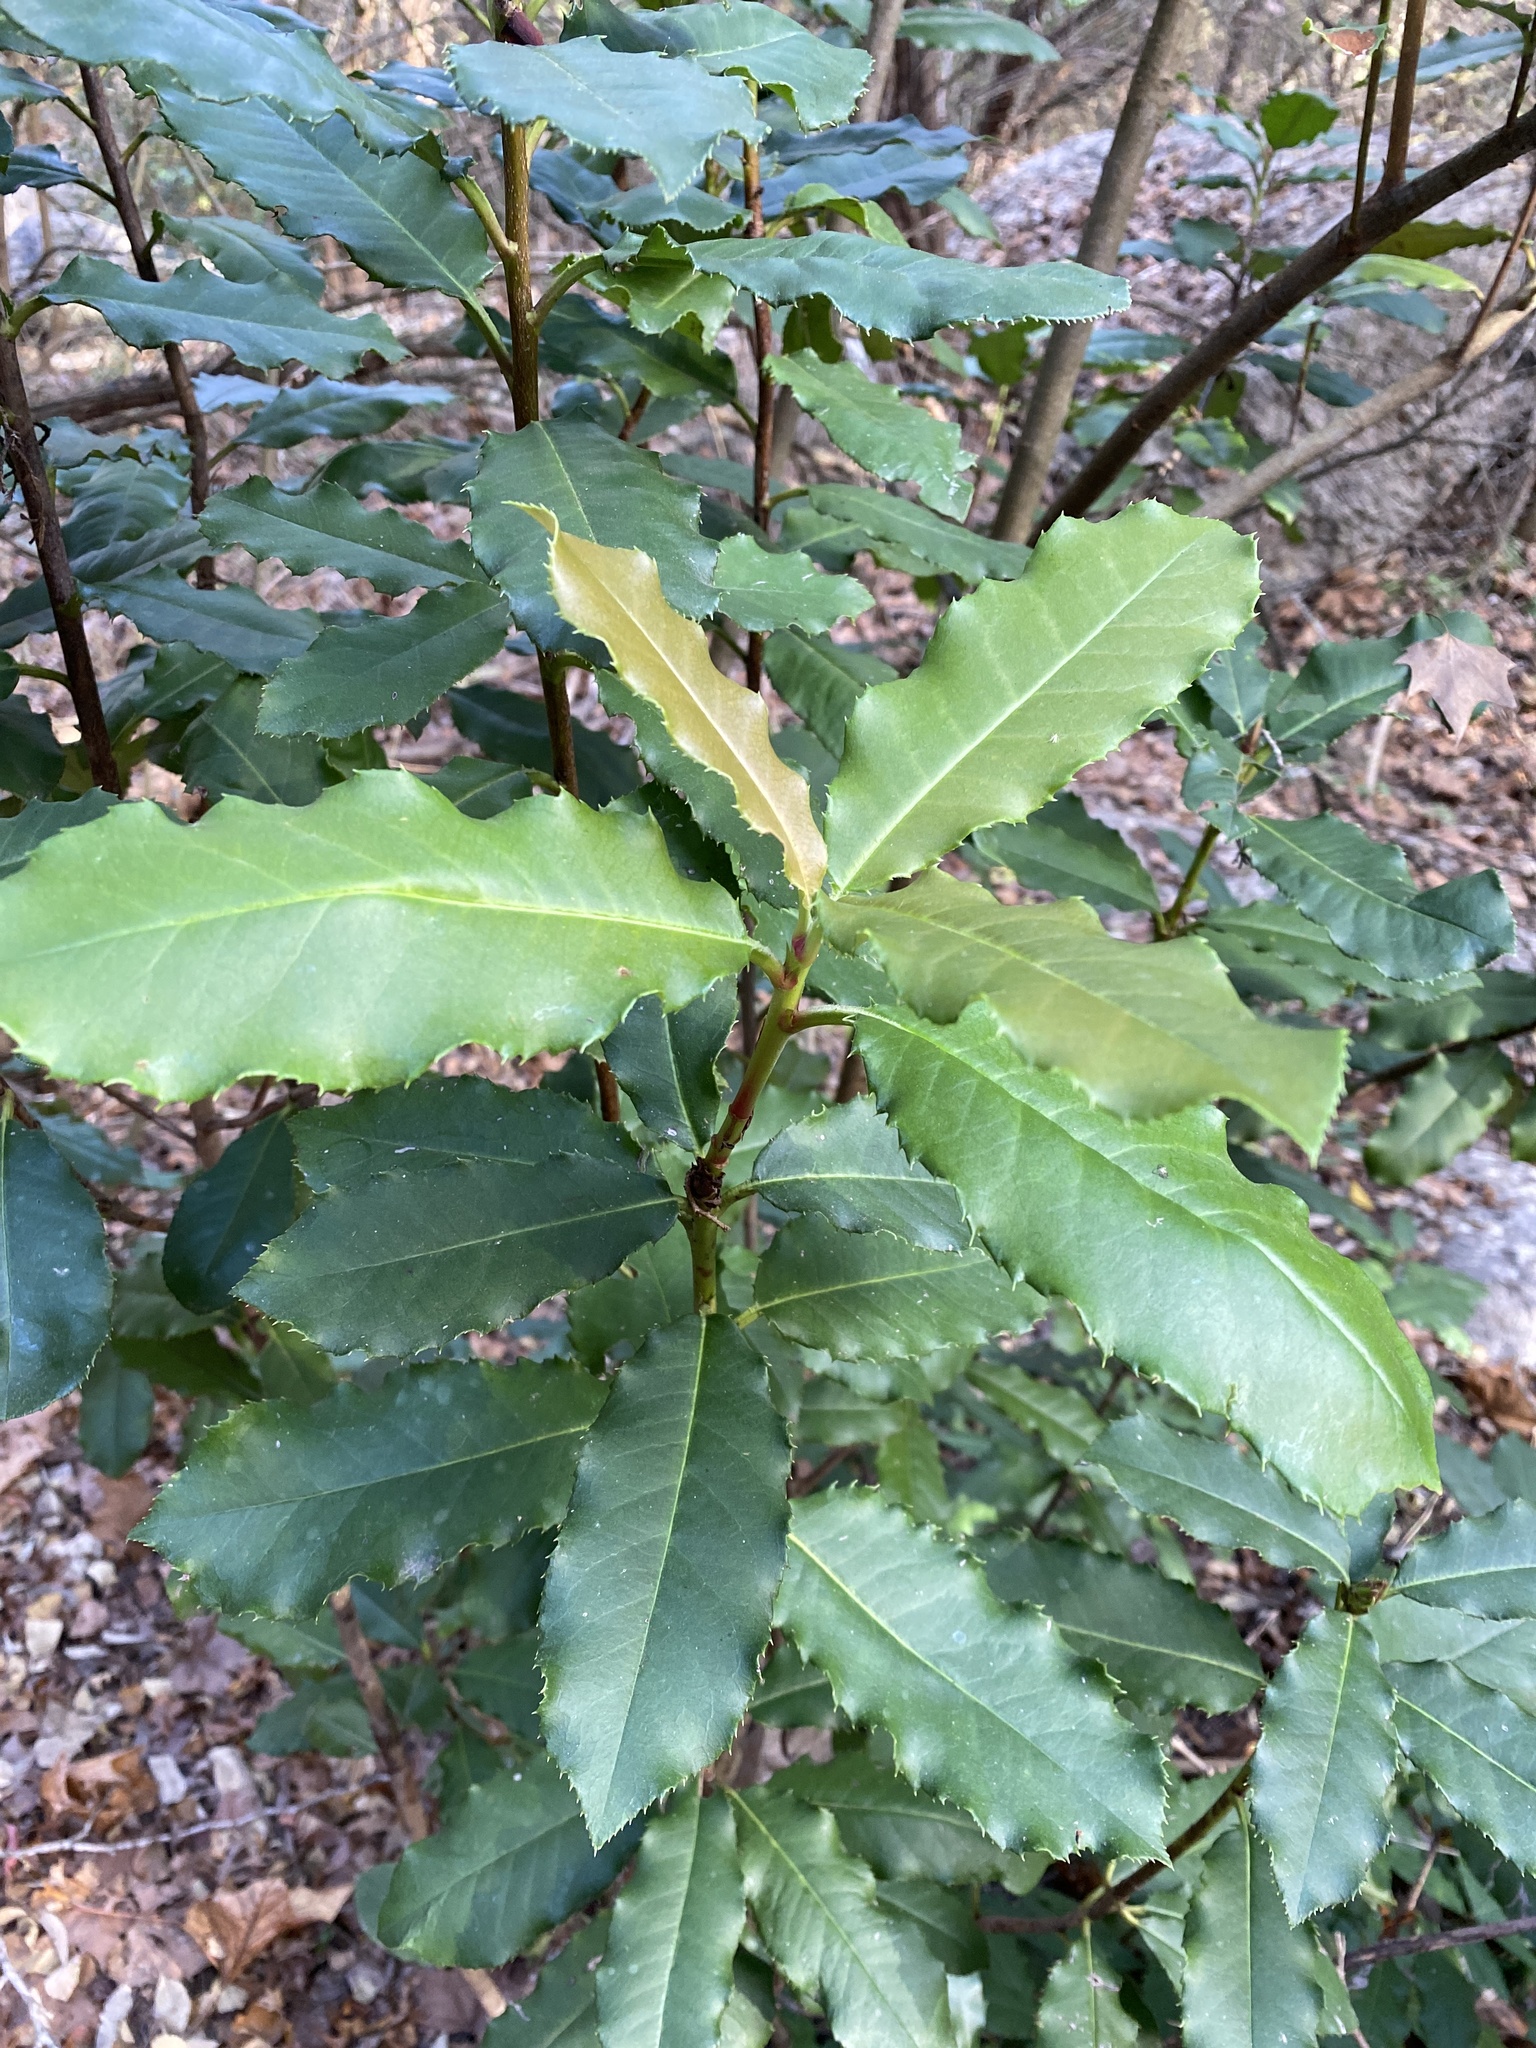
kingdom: Plantae
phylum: Tracheophyta
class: Magnoliopsida
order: Rosales
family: Rosaceae
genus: Photinia
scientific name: Photinia serratifolia
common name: Taiwanese photinia
